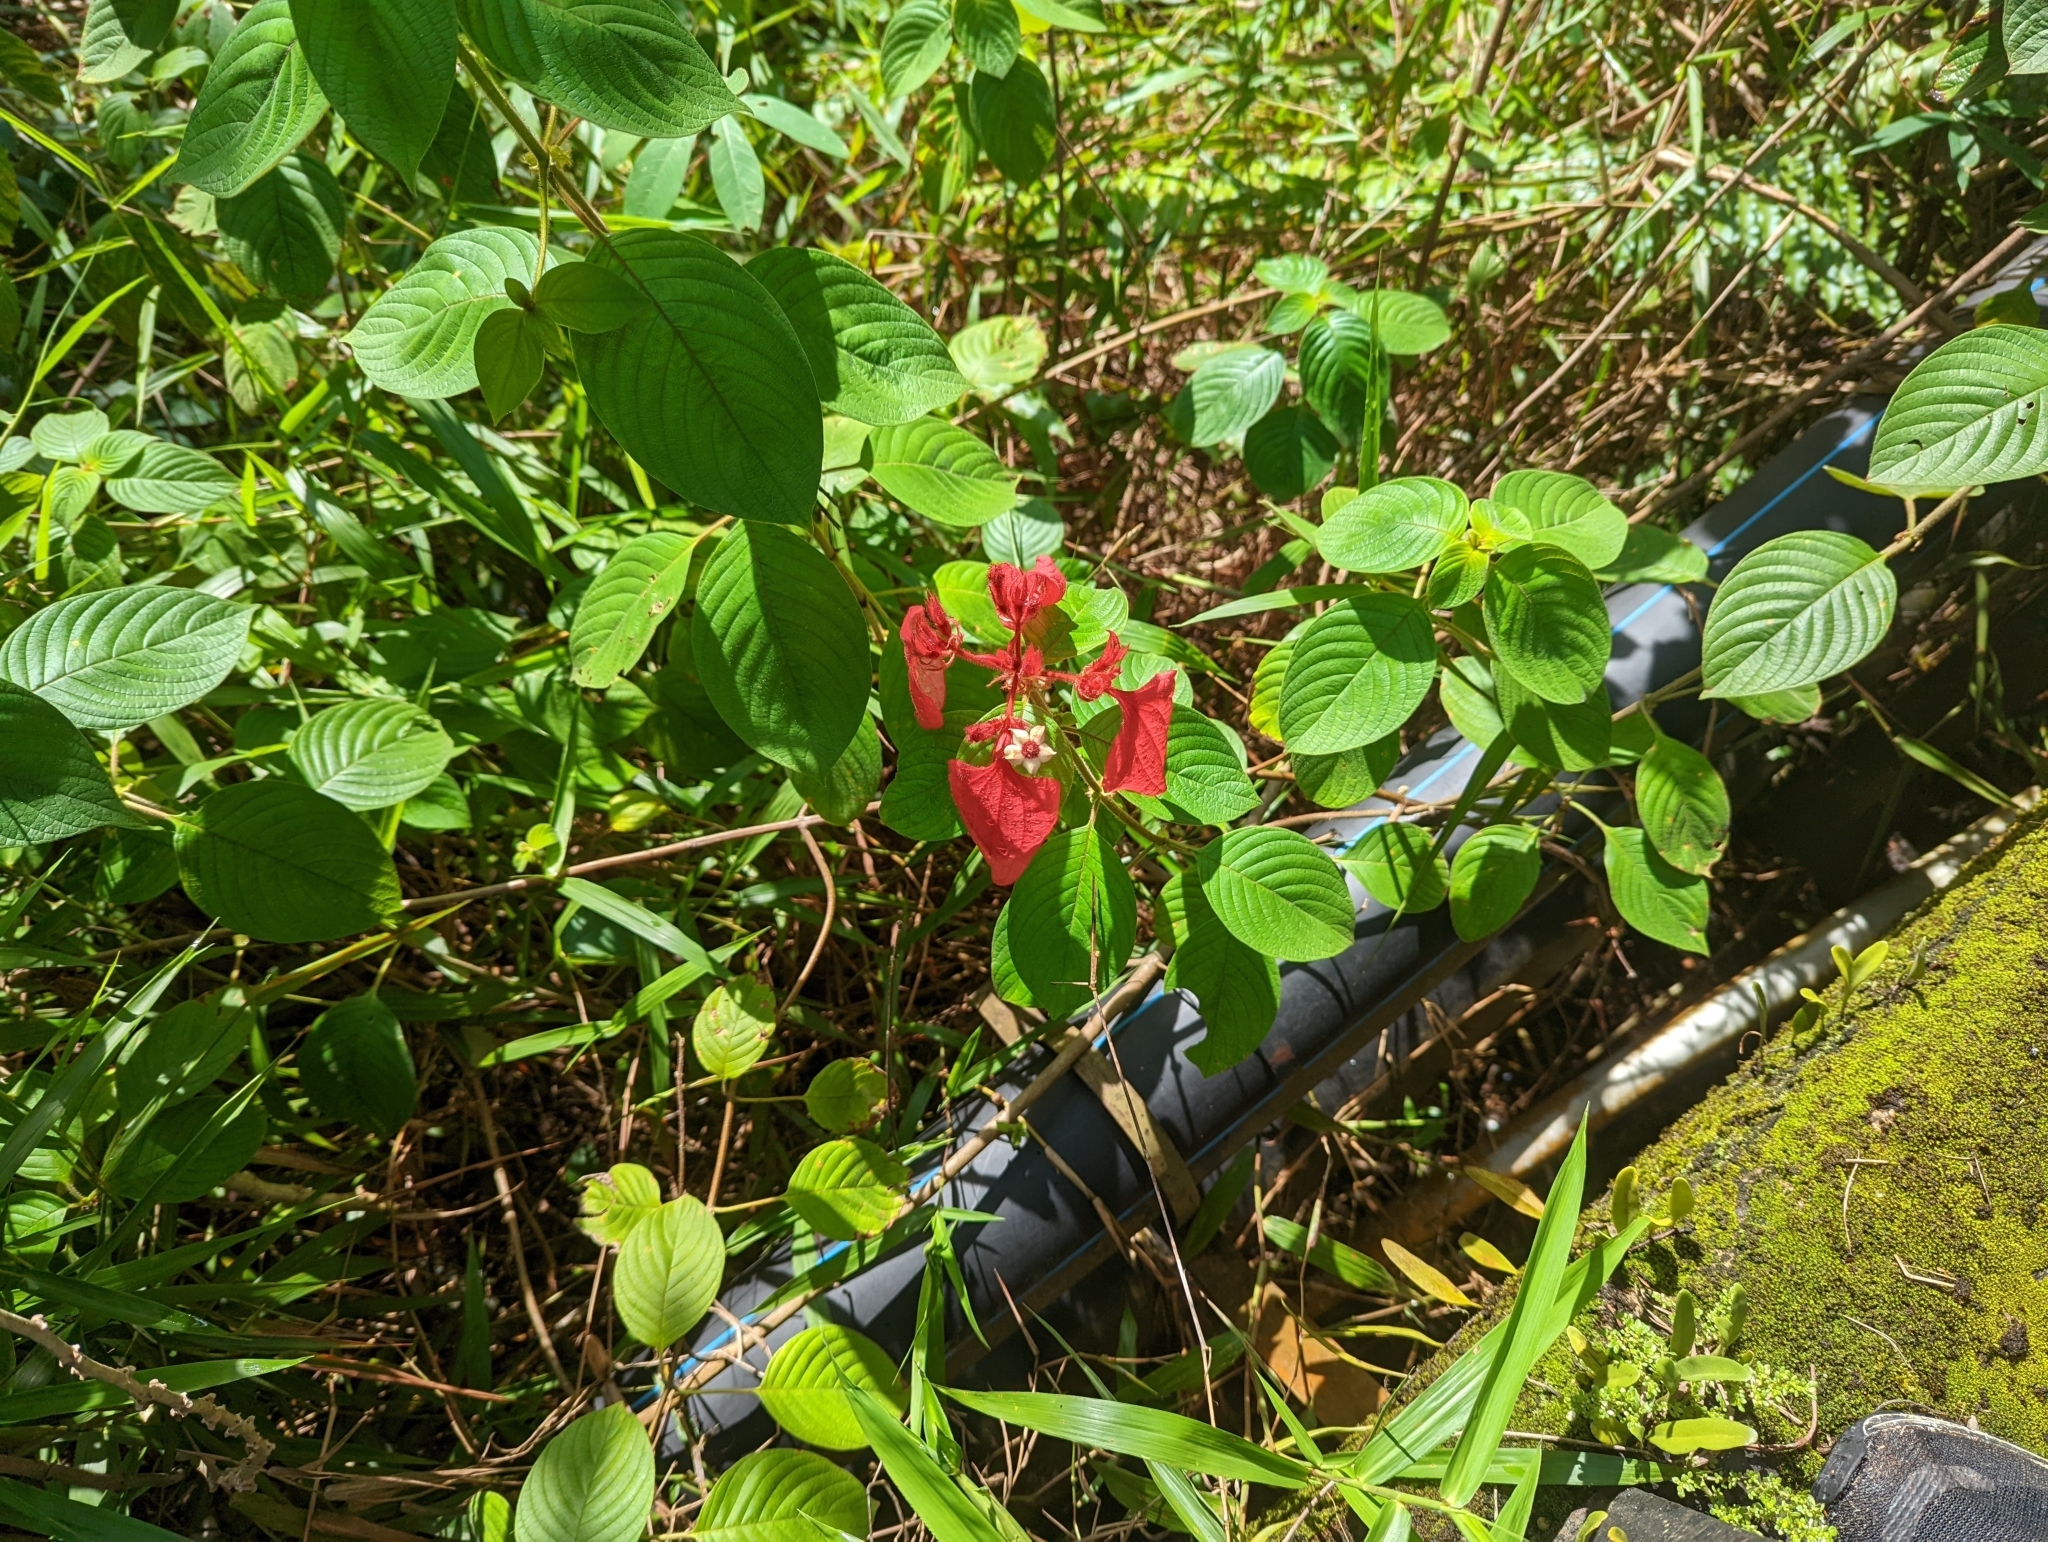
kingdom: Plantae
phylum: Tracheophyta
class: Magnoliopsida
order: Gentianales
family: Rubiaceae
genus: Mussaenda
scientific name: Mussaenda erythrophylla
